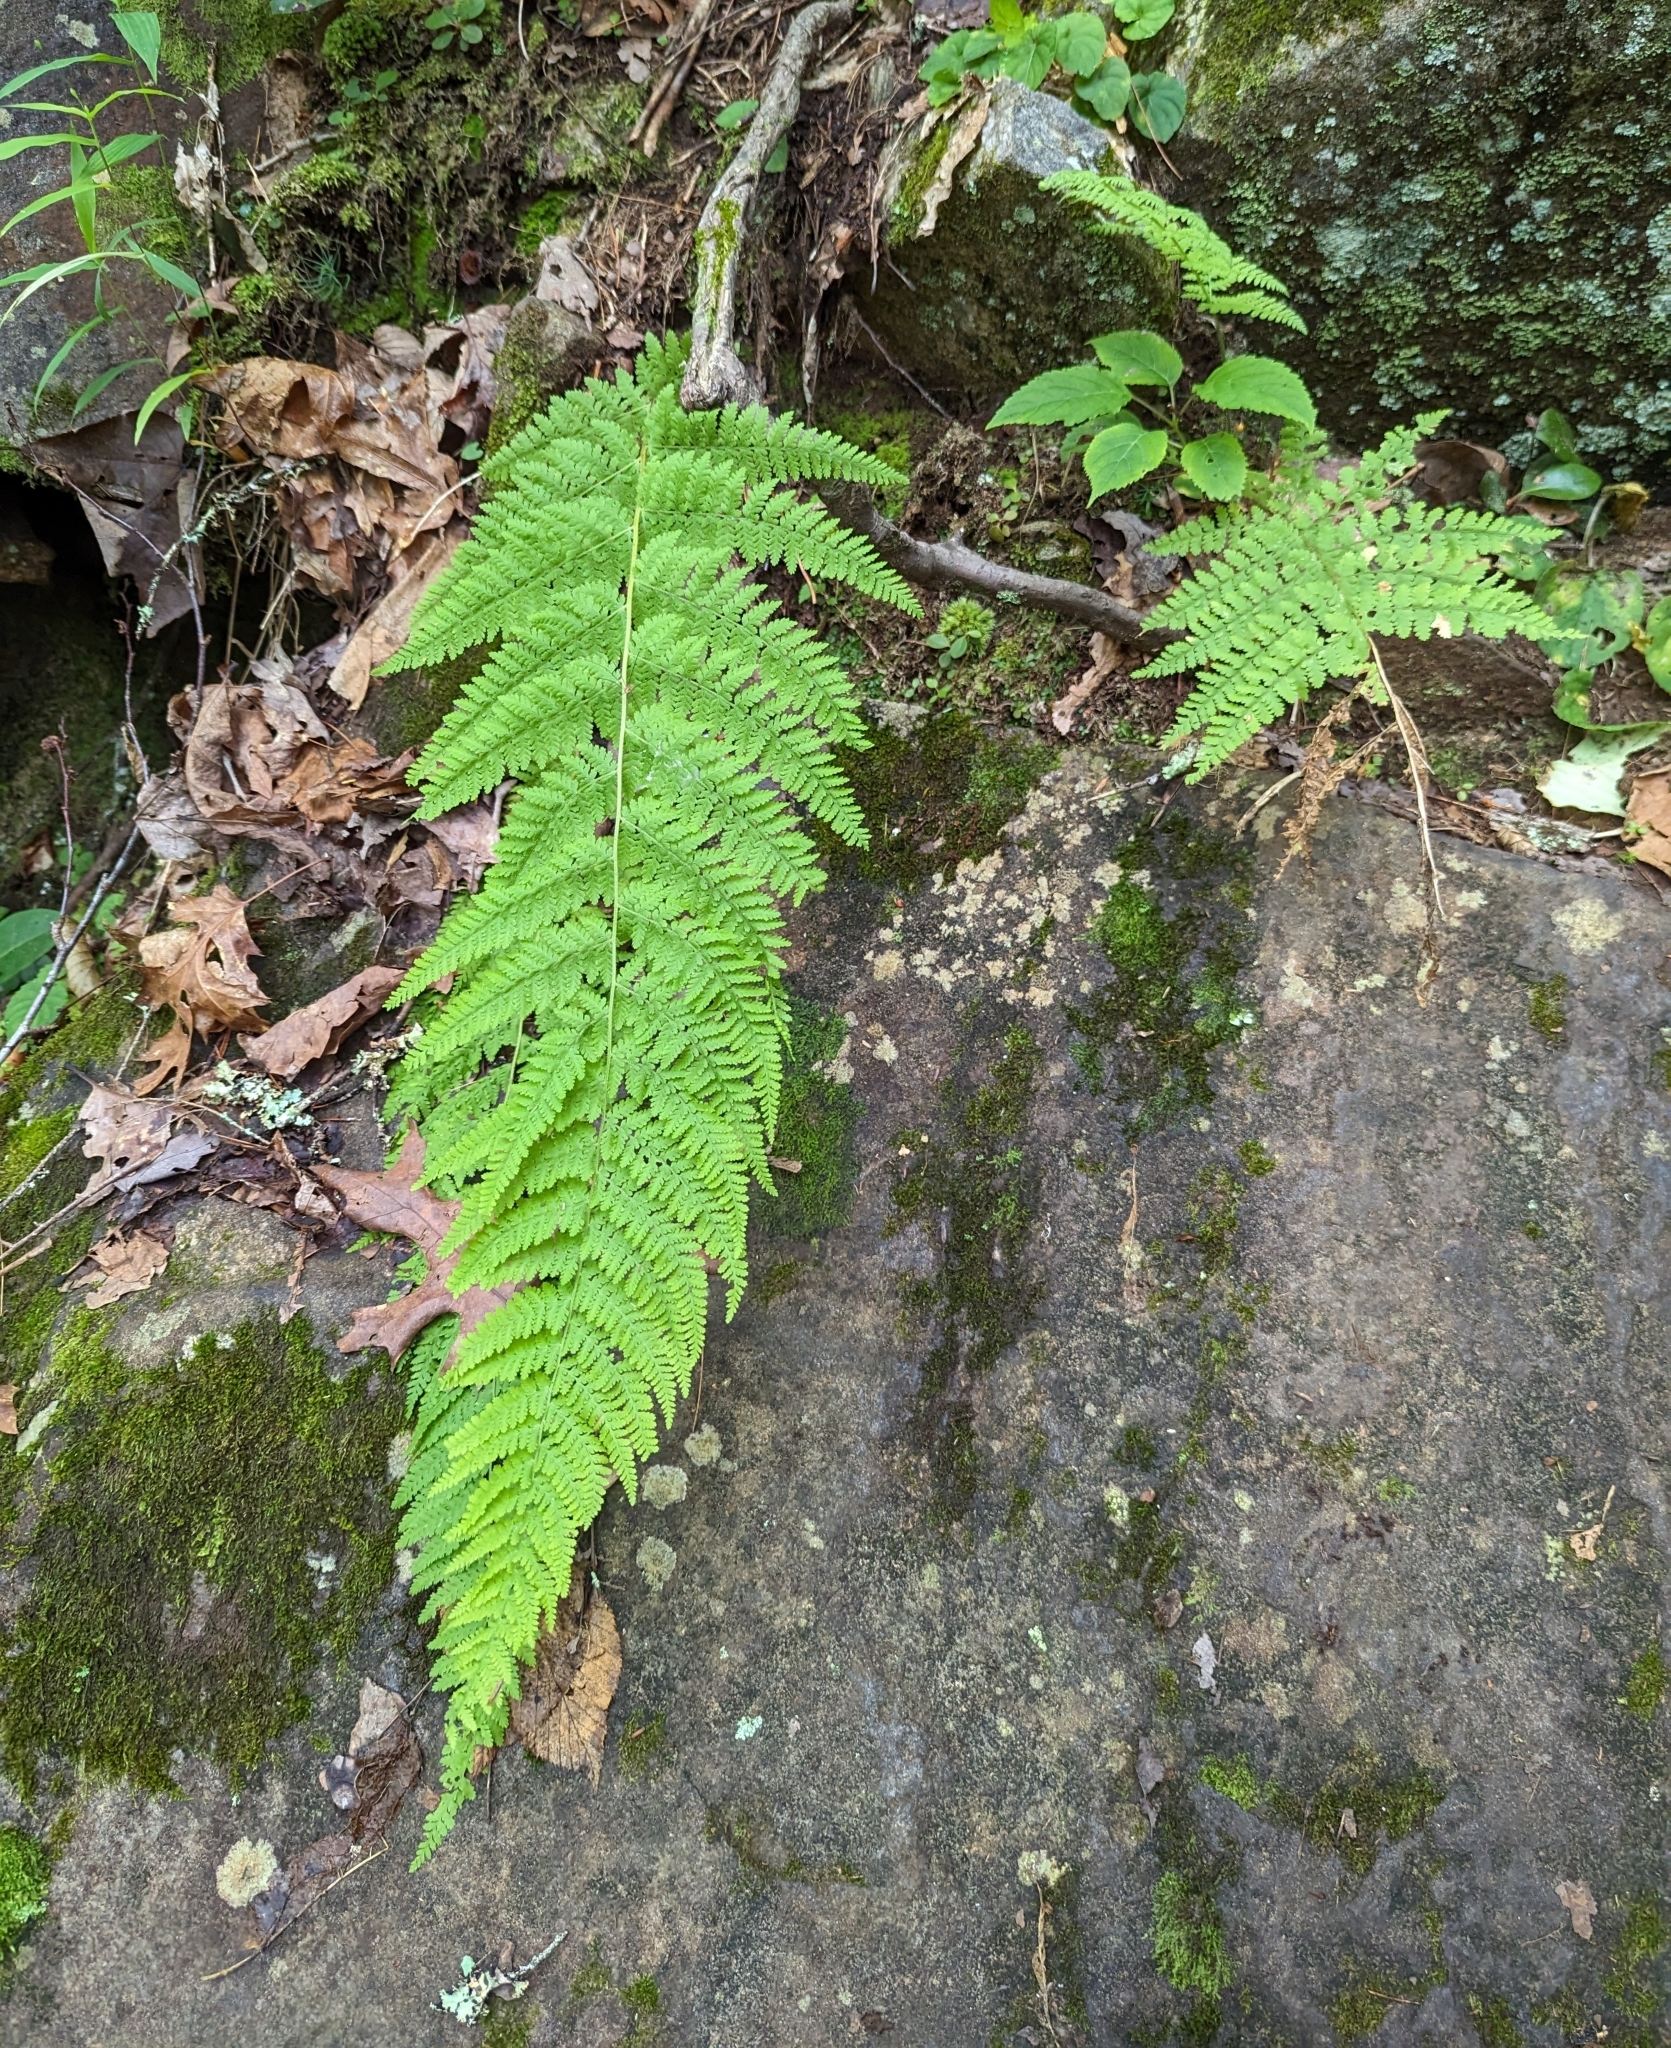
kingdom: Plantae
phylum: Tracheophyta
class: Polypodiopsida
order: Polypodiales
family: Dennstaedtiaceae
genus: Sitobolium
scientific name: Sitobolium punctilobum
